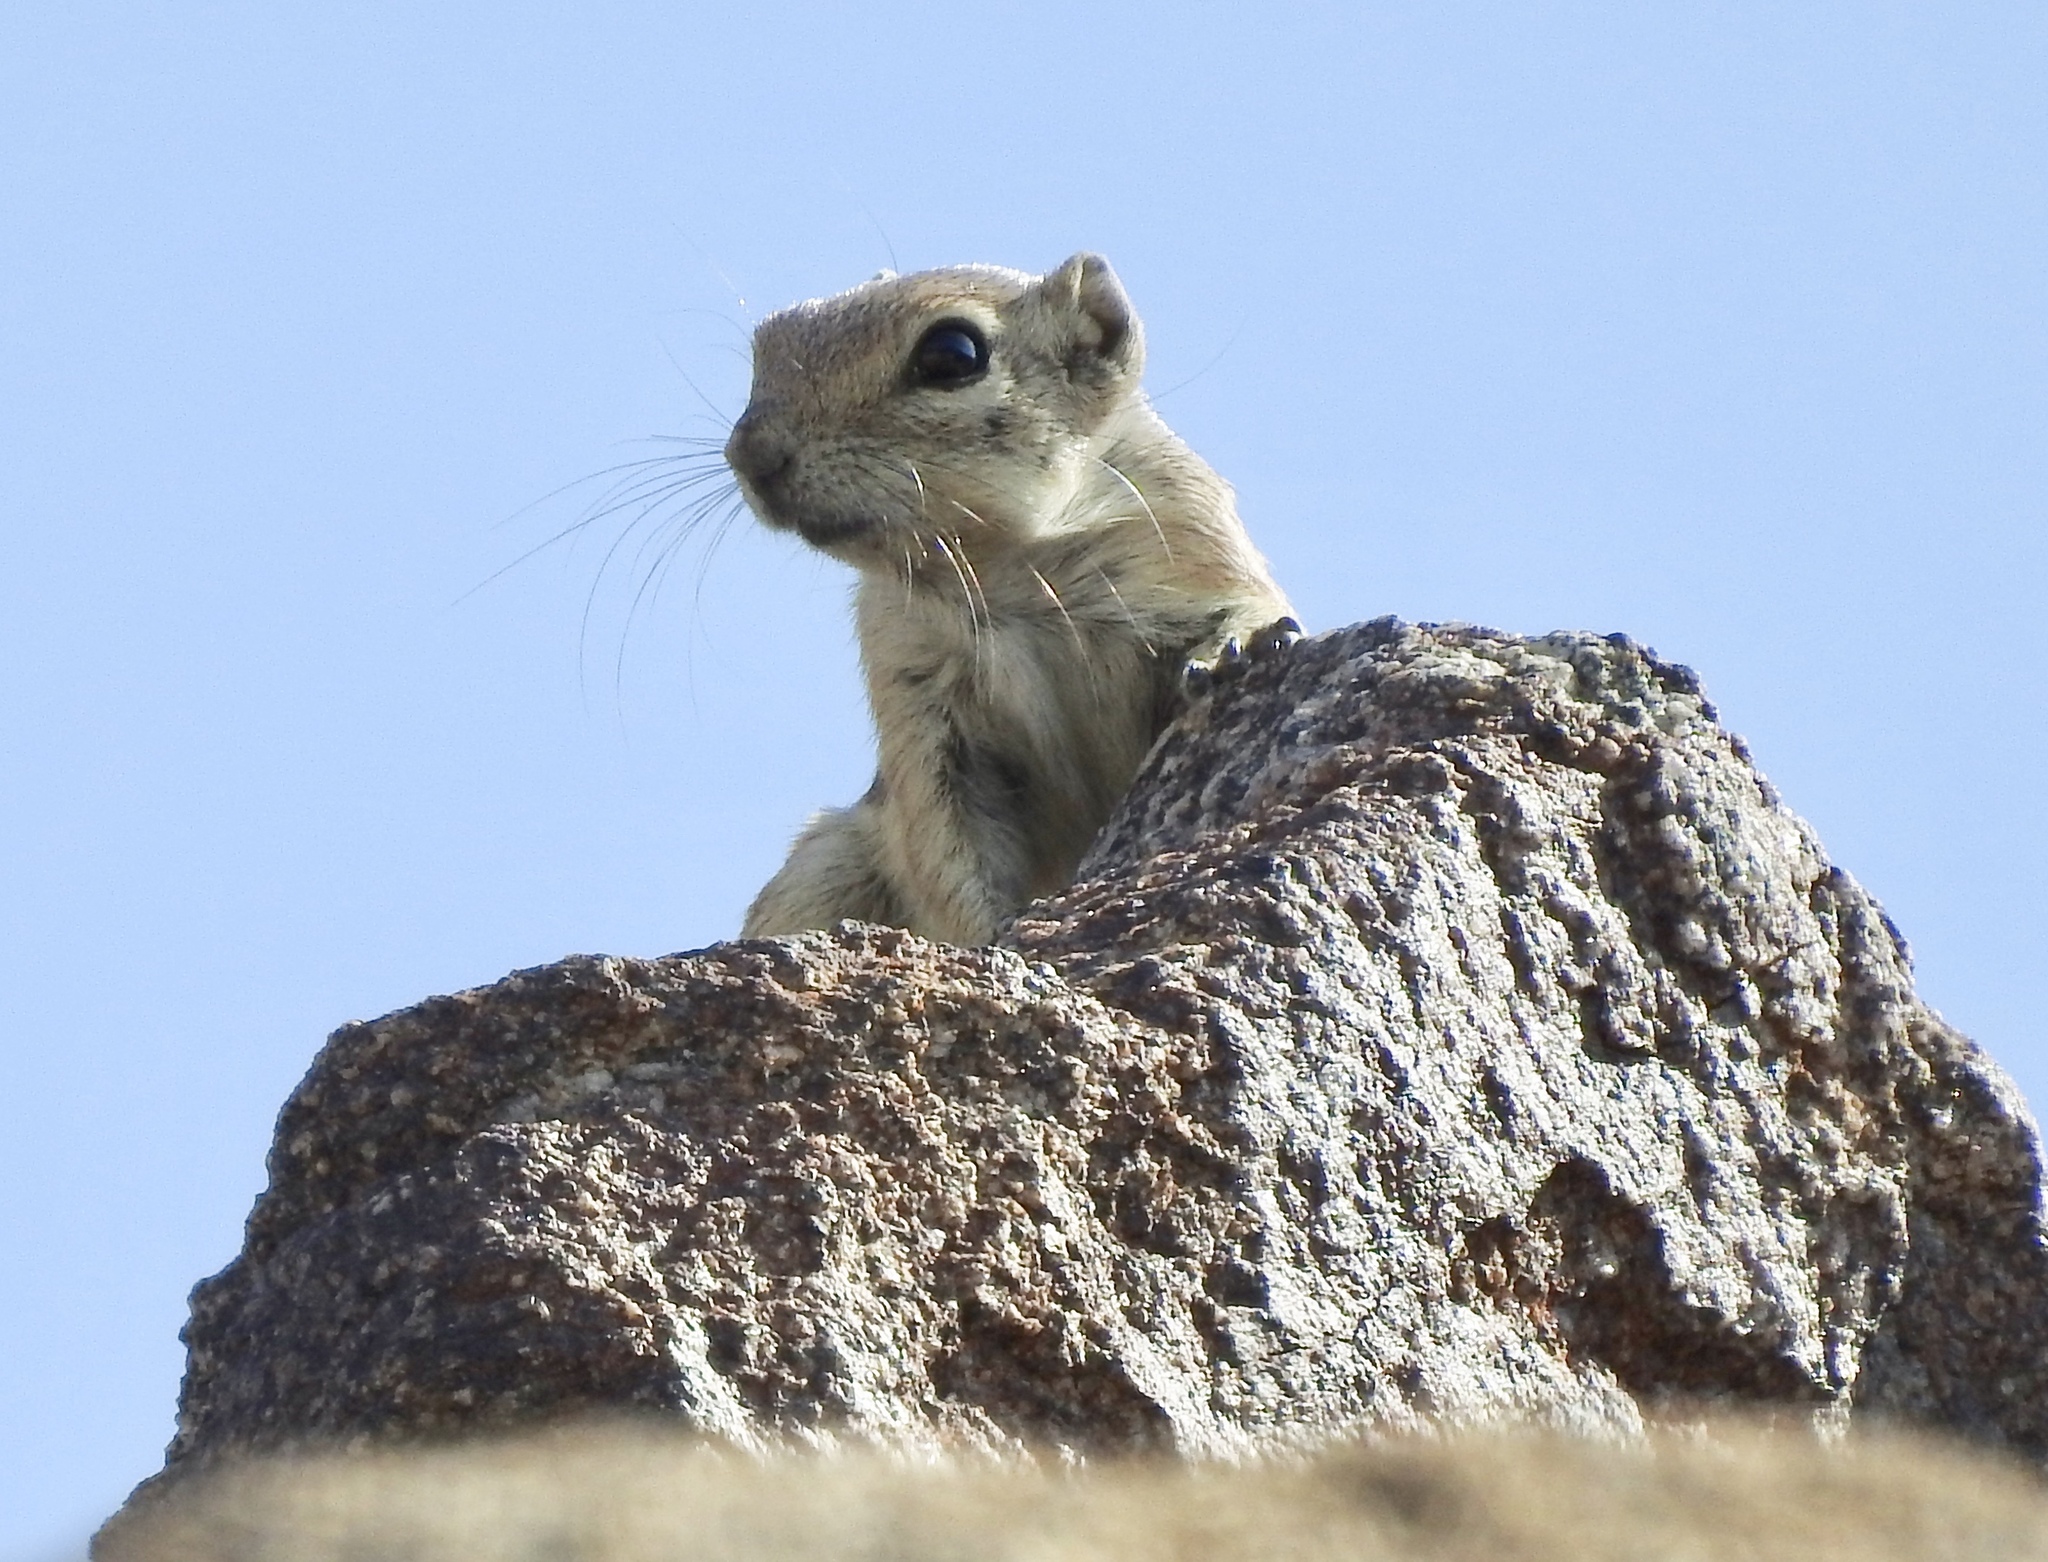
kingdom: Animalia
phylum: Chordata
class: Mammalia
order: Rodentia
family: Sciuridae
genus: Ammospermophilus
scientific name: Ammospermophilus leucurus
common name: White-tailed antelope squirrel
